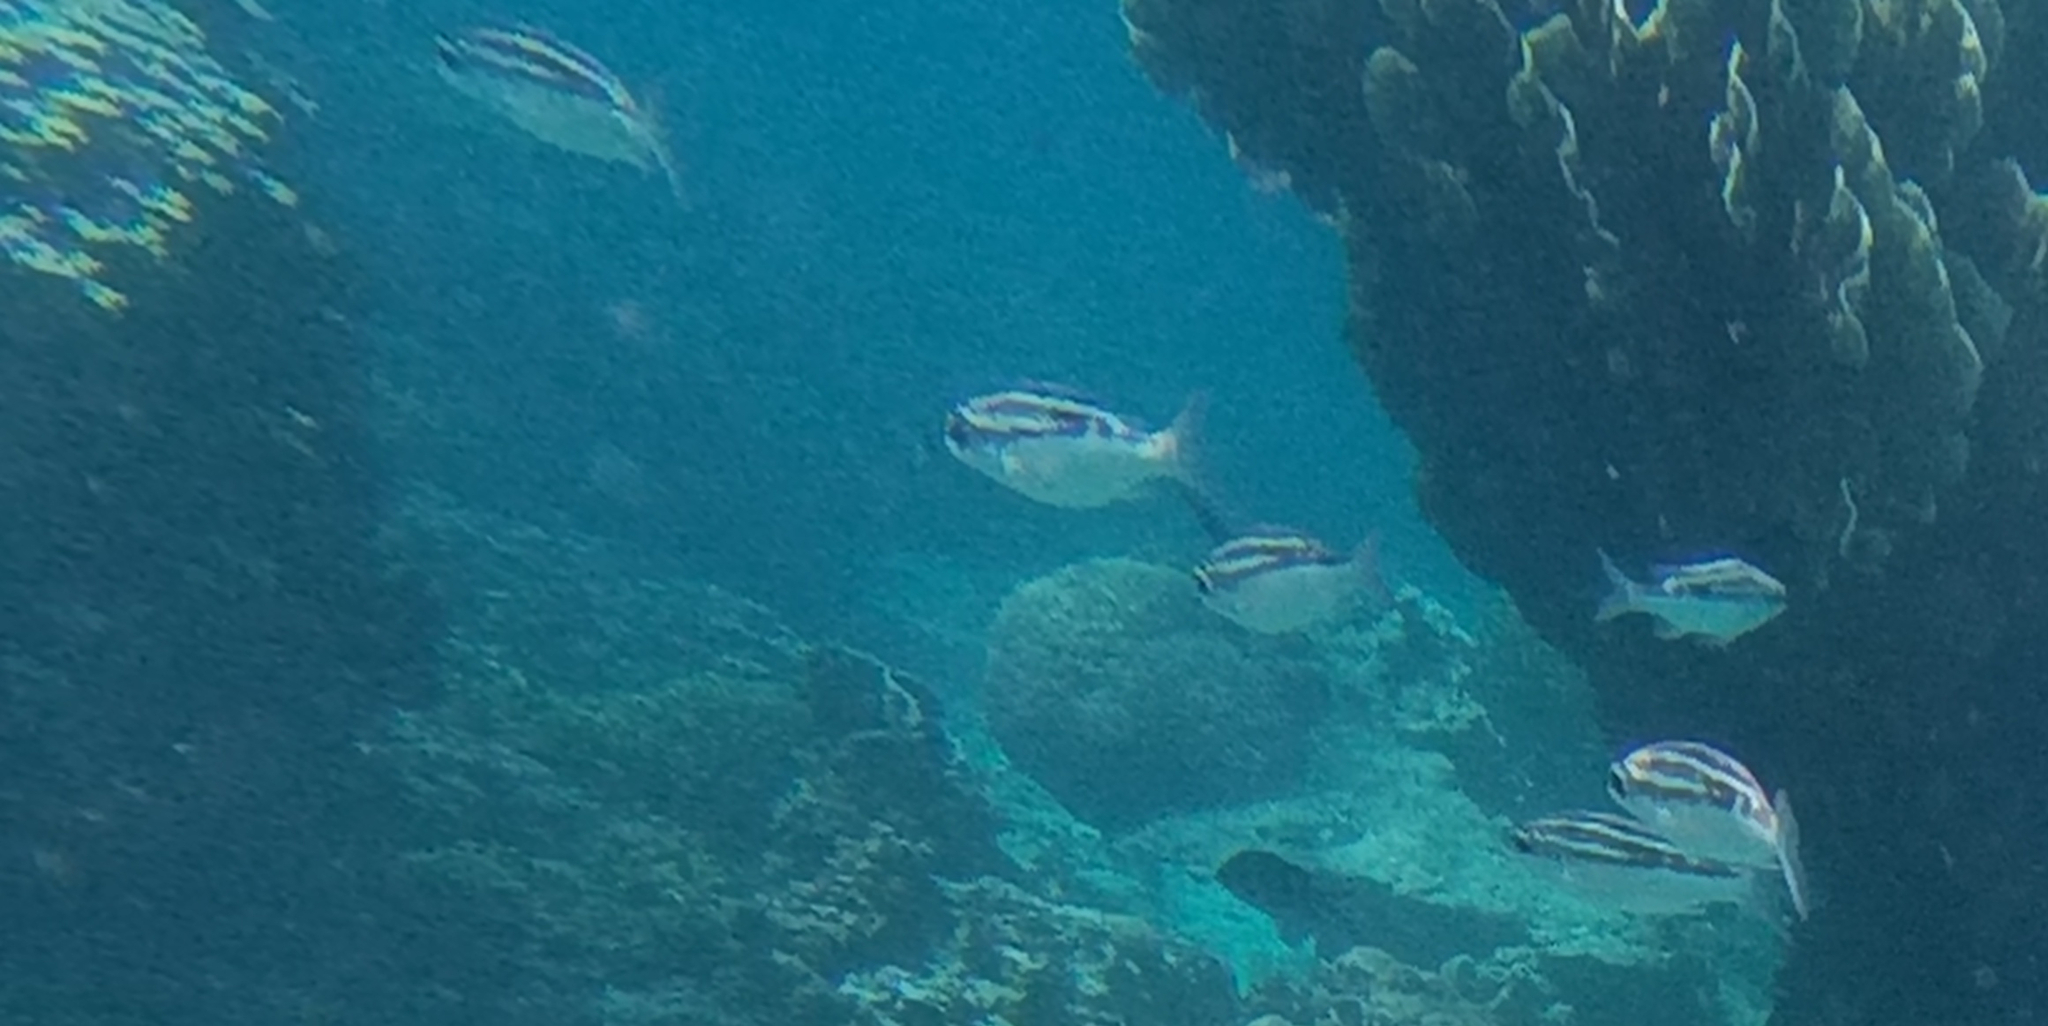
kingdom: Animalia
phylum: Chordata
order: Perciformes
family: Nemipteridae
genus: Scolopsis
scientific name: Scolopsis lineata
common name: Striped monocle bream
